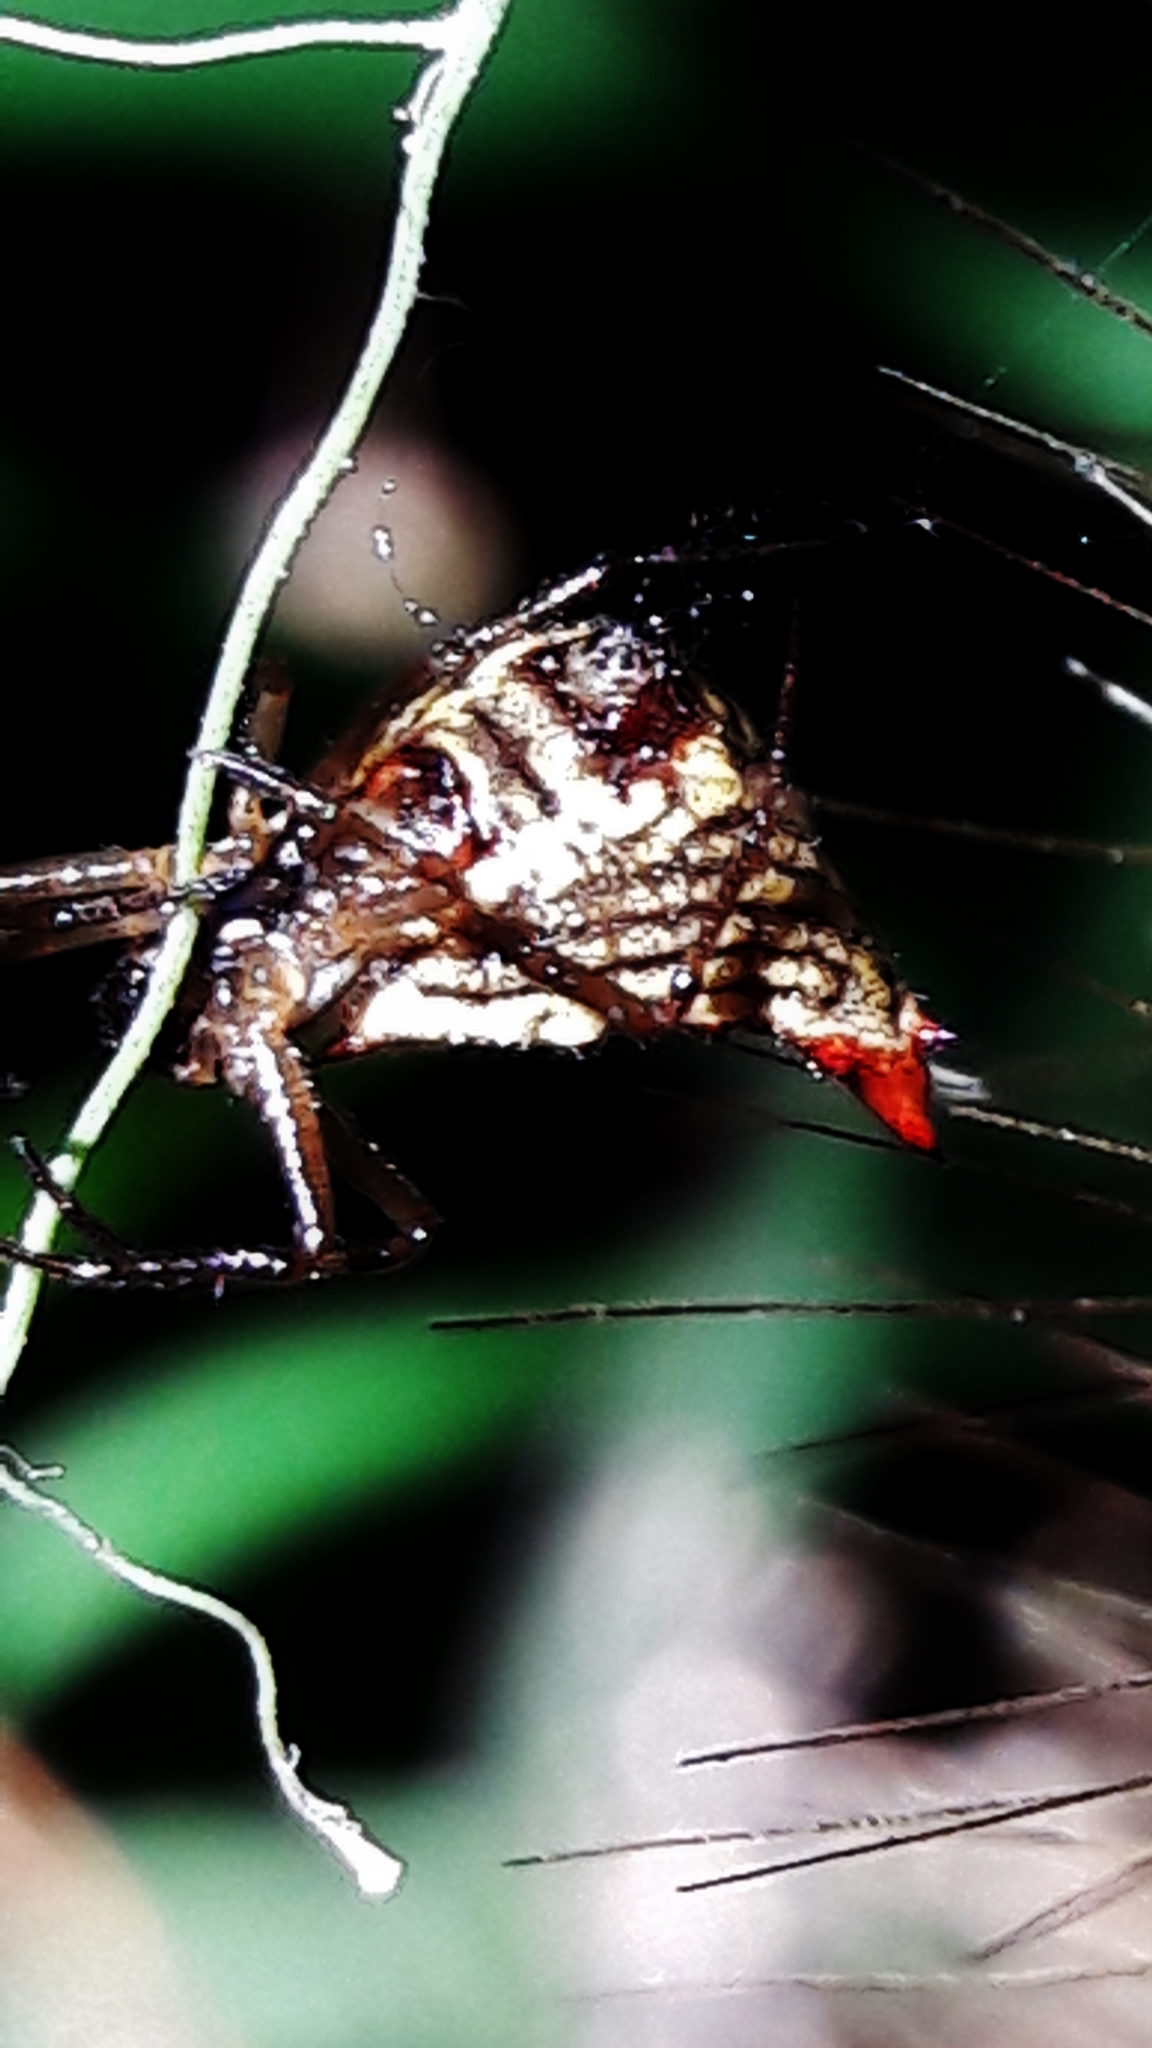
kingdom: Animalia
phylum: Arthropoda
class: Arachnida
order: Araneae
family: Araneidae
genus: Micrathena
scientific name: Micrathena plana
